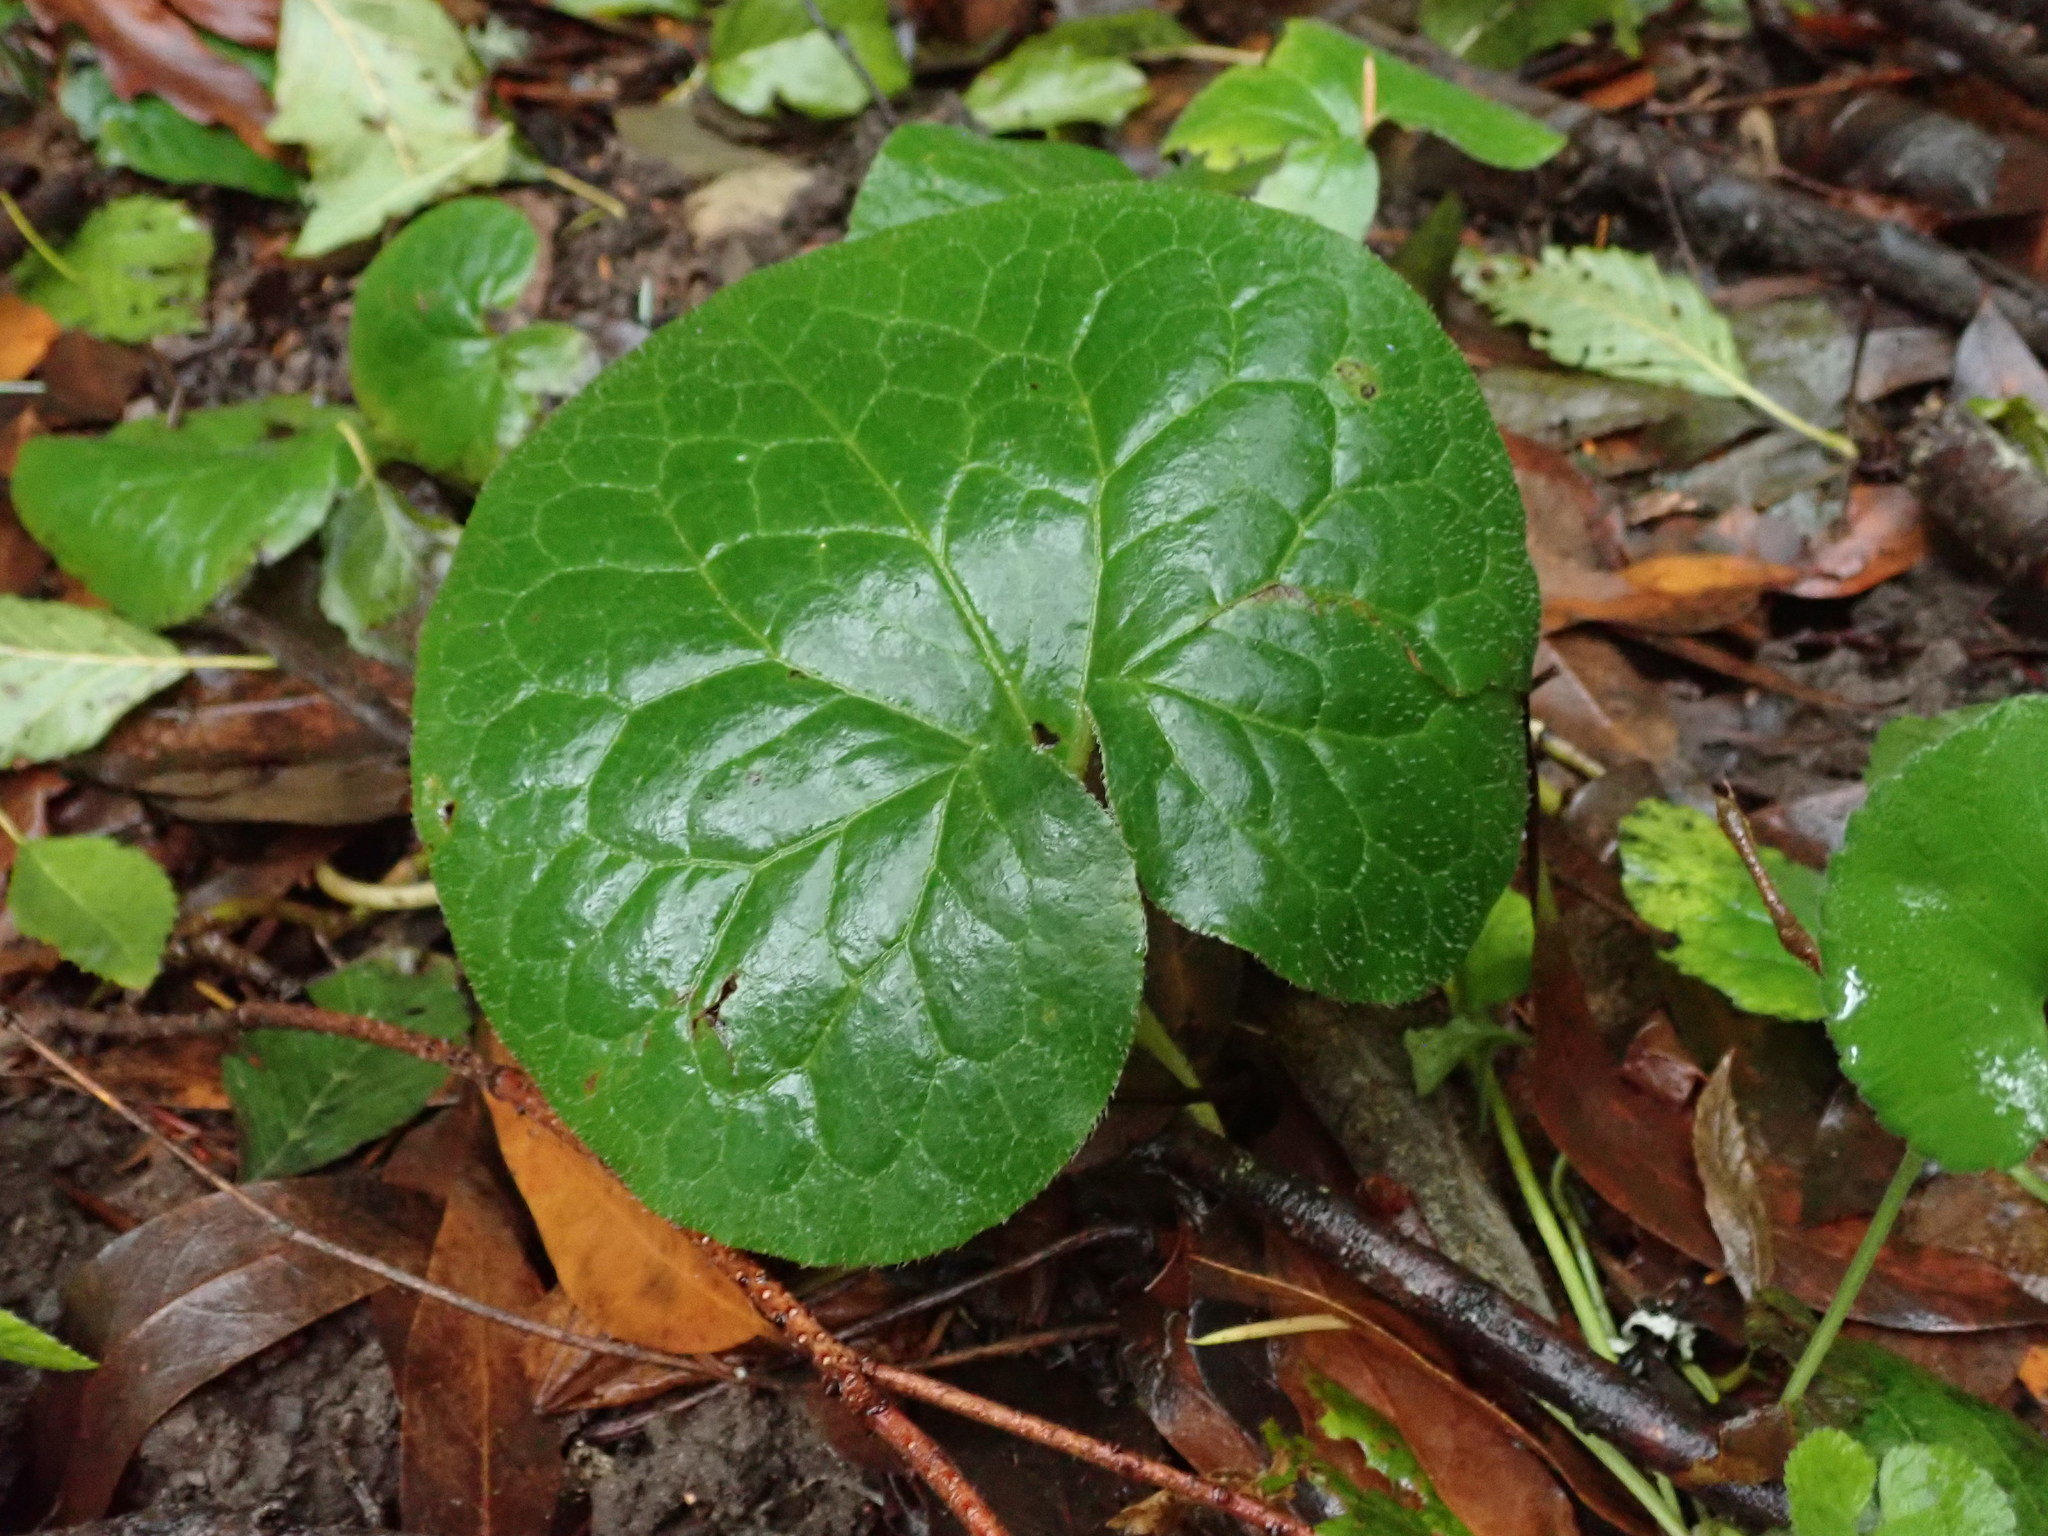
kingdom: Plantae
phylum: Tracheophyta
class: Magnoliopsida
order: Piperales
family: Aristolochiaceae
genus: Asarum
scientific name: Asarum caudatum
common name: Wild ginger
